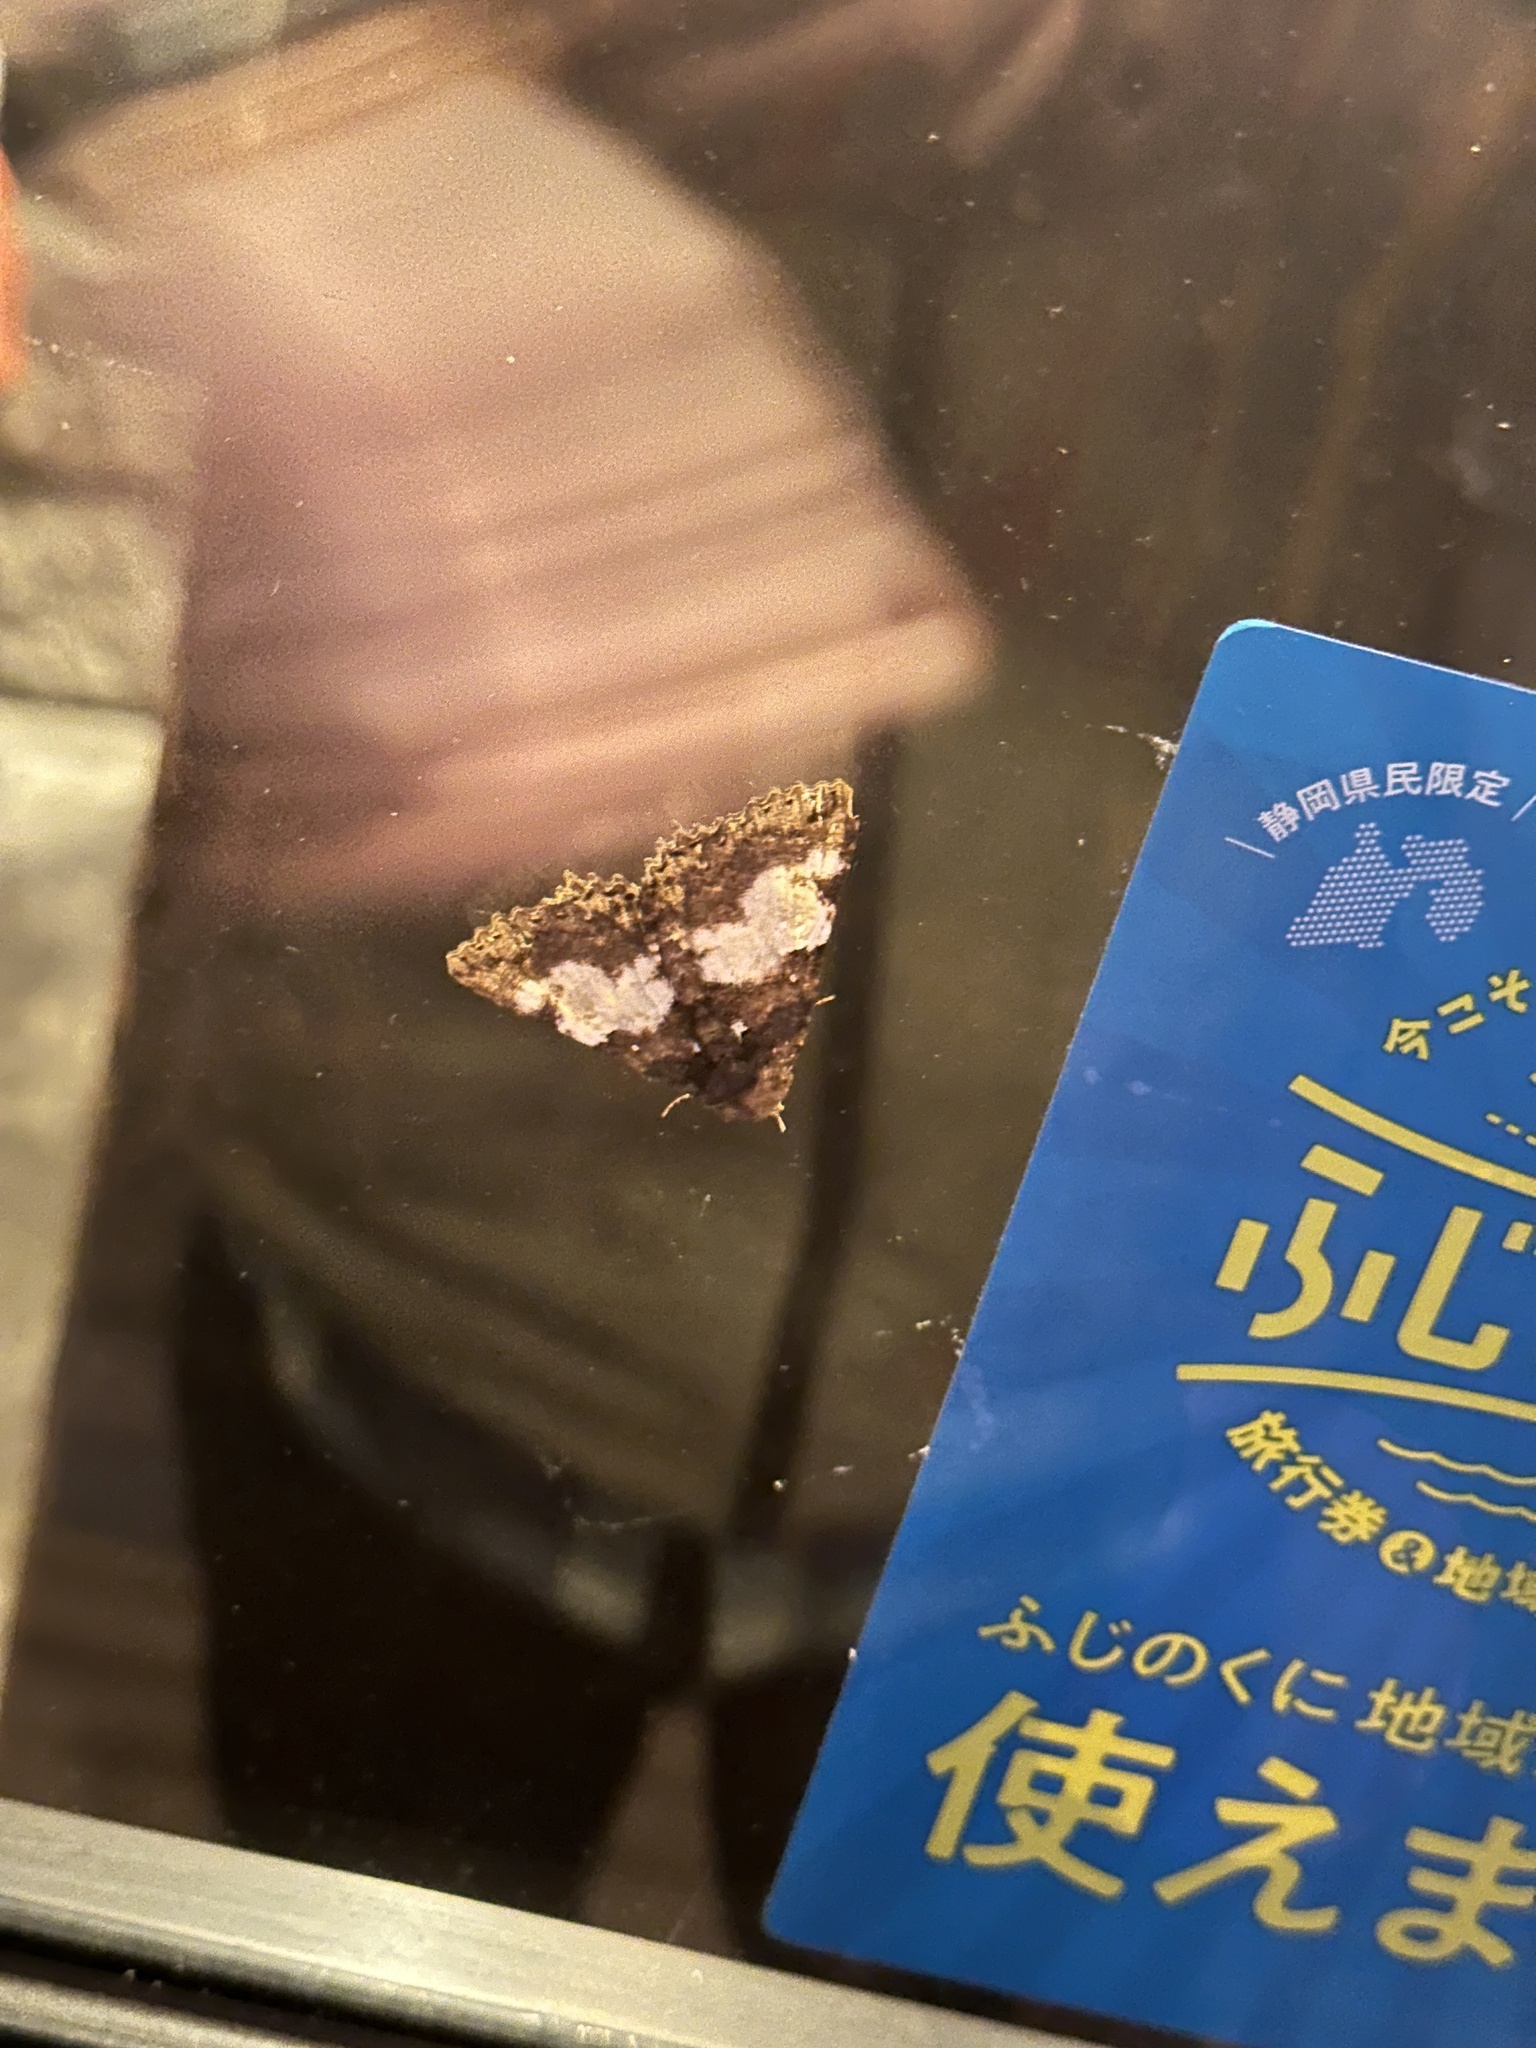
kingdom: Animalia
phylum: Arthropoda
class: Insecta
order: Lepidoptera
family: Erebidae
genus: Daddala
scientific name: Daddala lucilla
